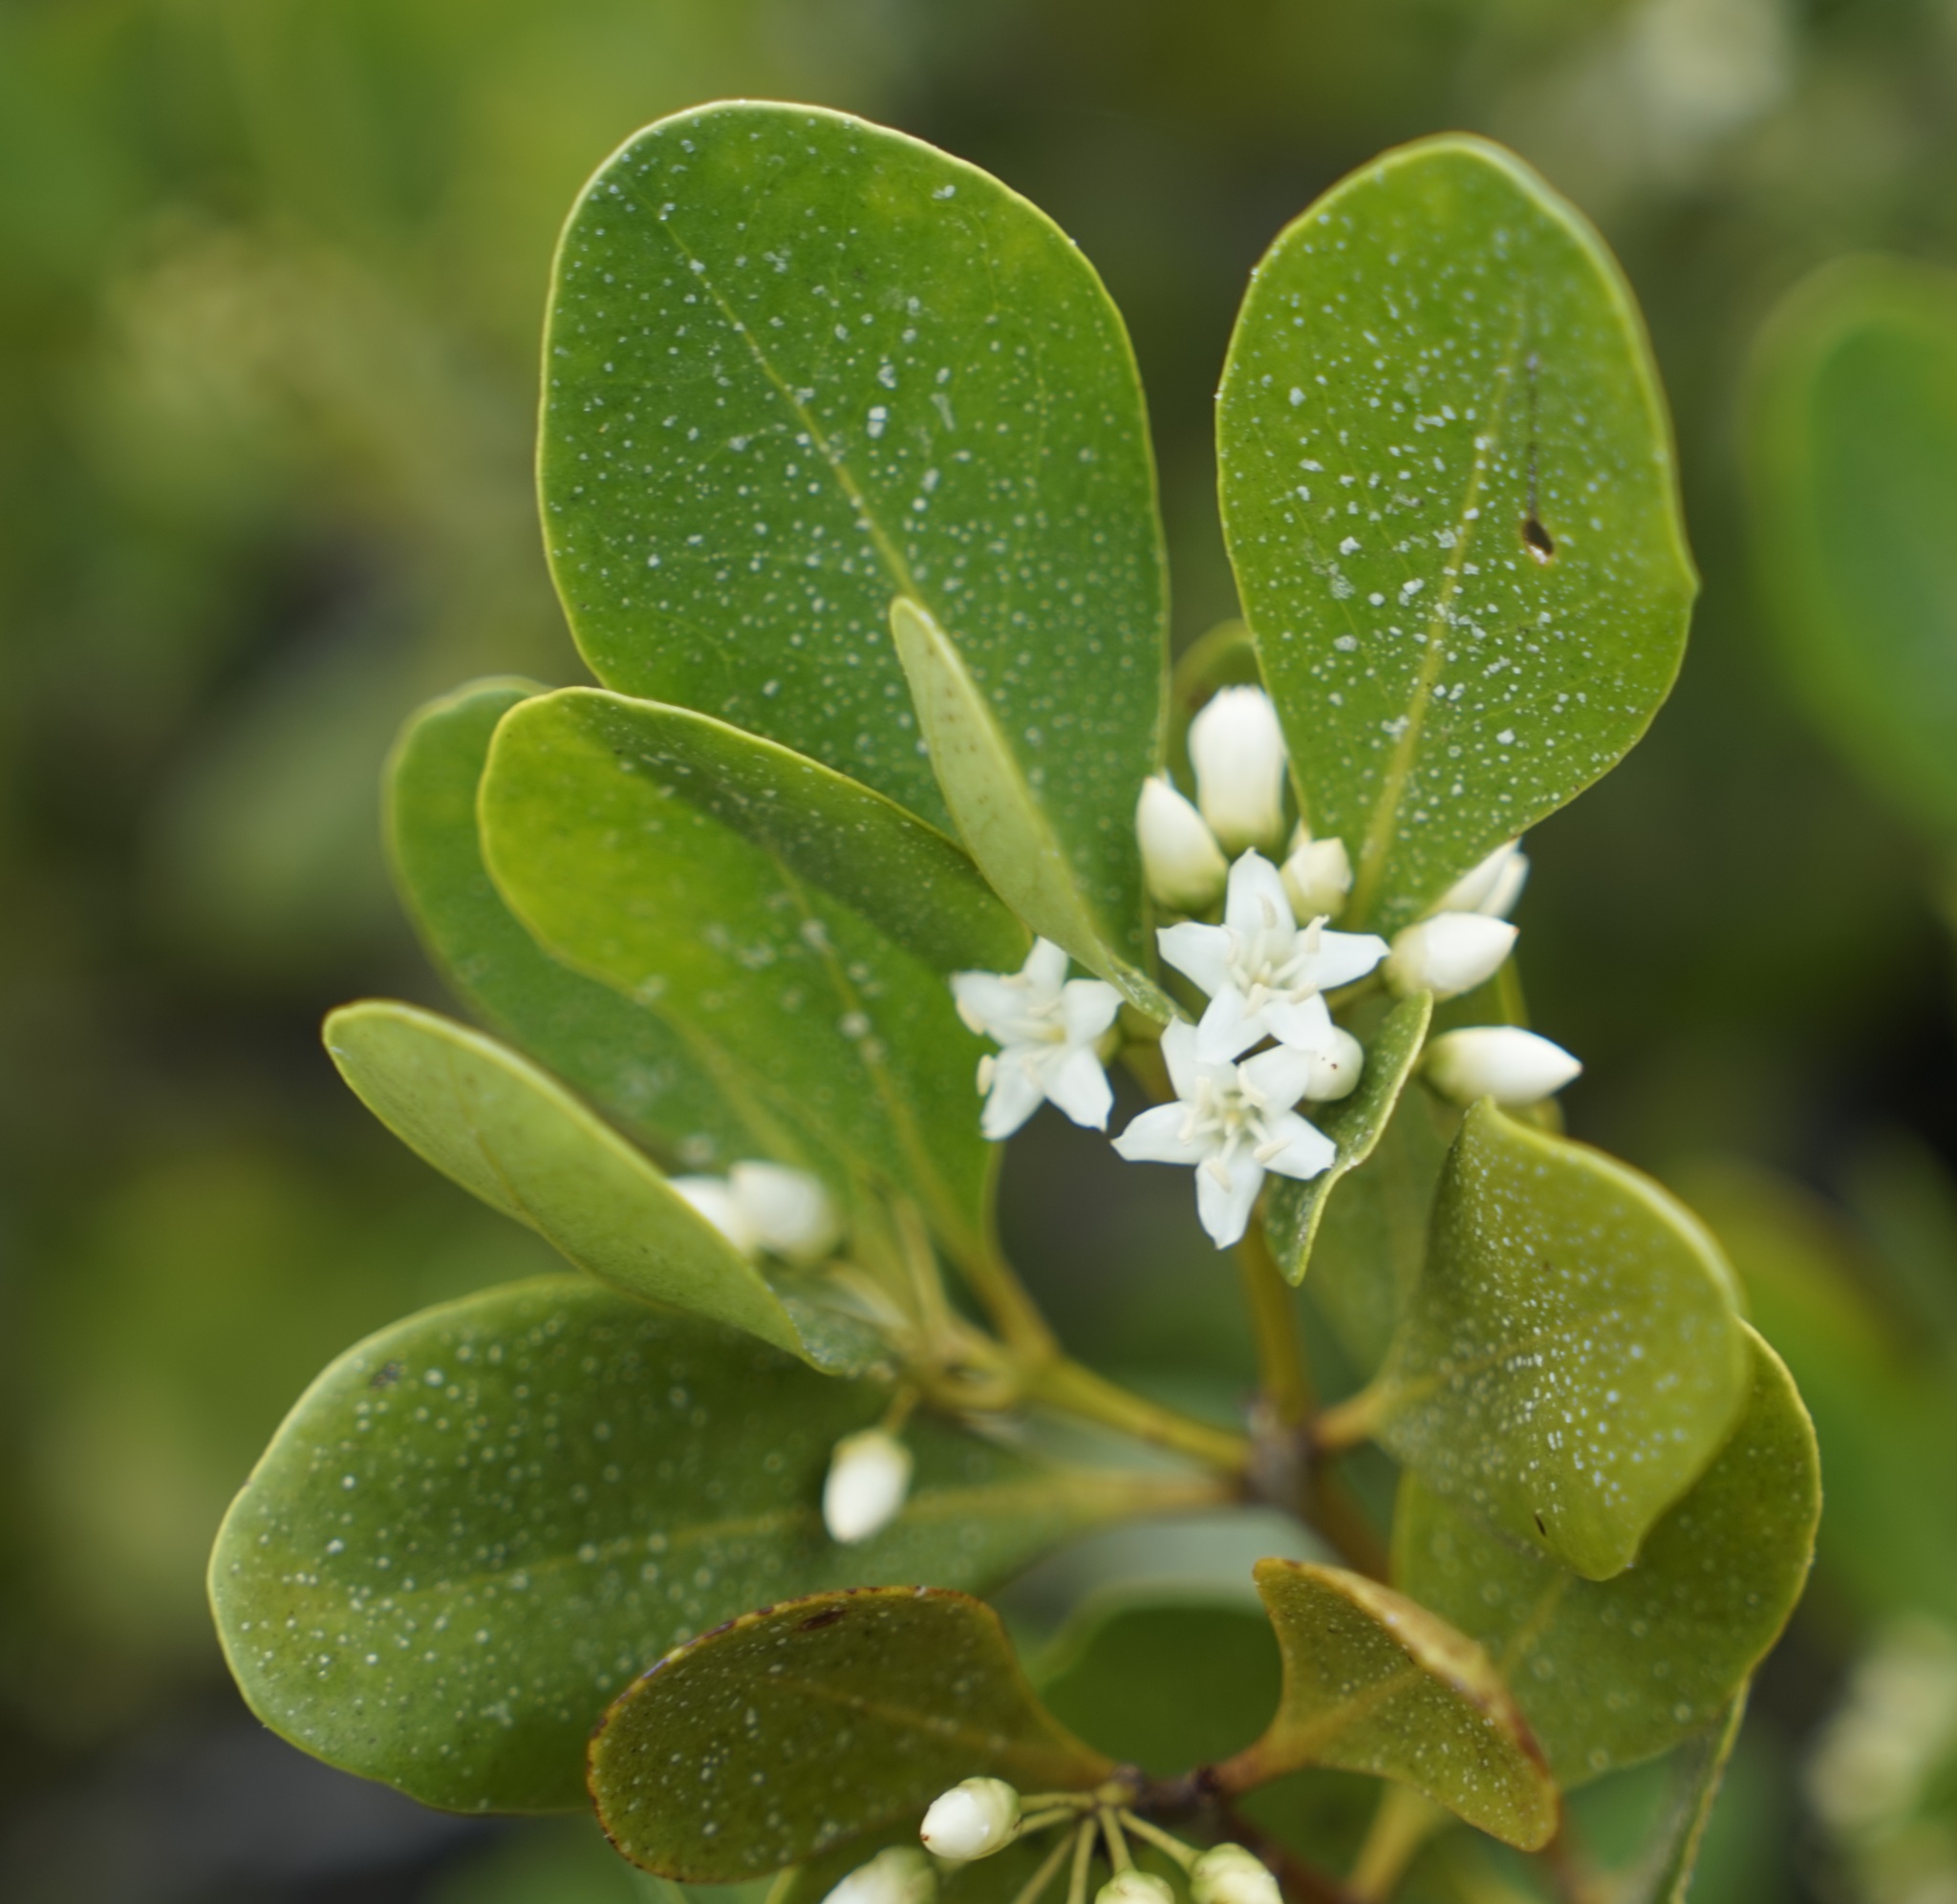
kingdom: Plantae
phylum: Tracheophyta
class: Magnoliopsida
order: Ericales
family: Primulaceae
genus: Aegiceras
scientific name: Aegiceras corniculatum
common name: River mangrove
